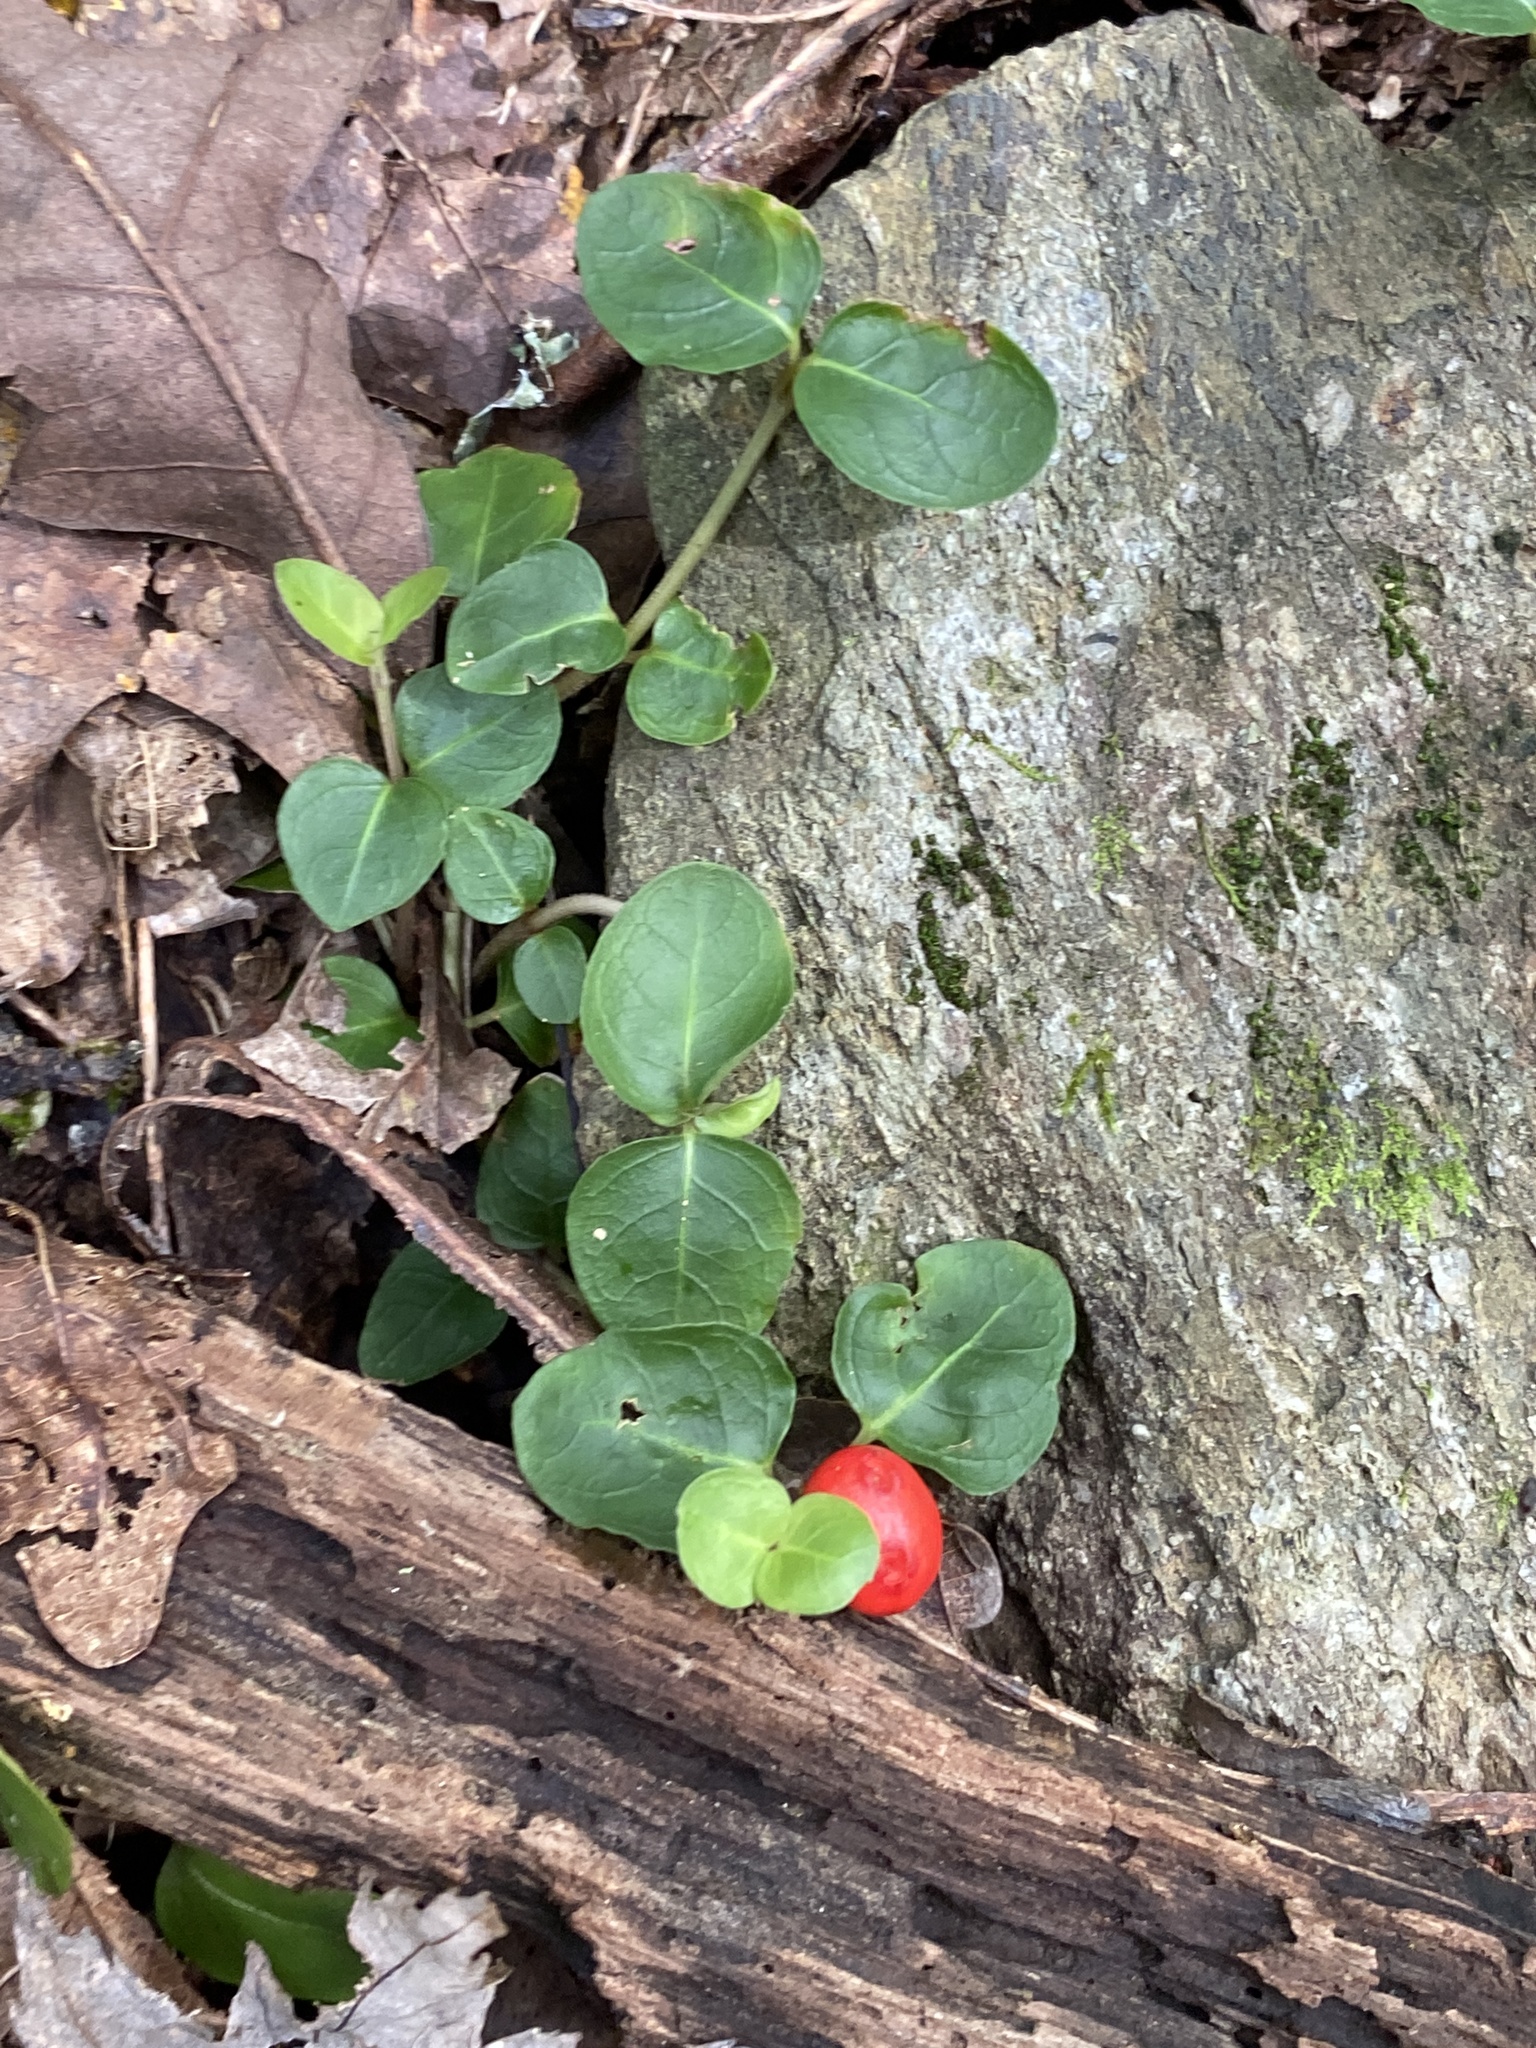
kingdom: Plantae
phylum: Tracheophyta
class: Magnoliopsida
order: Gentianales
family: Rubiaceae
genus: Mitchella
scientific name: Mitchella repens
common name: Partridge-berry
